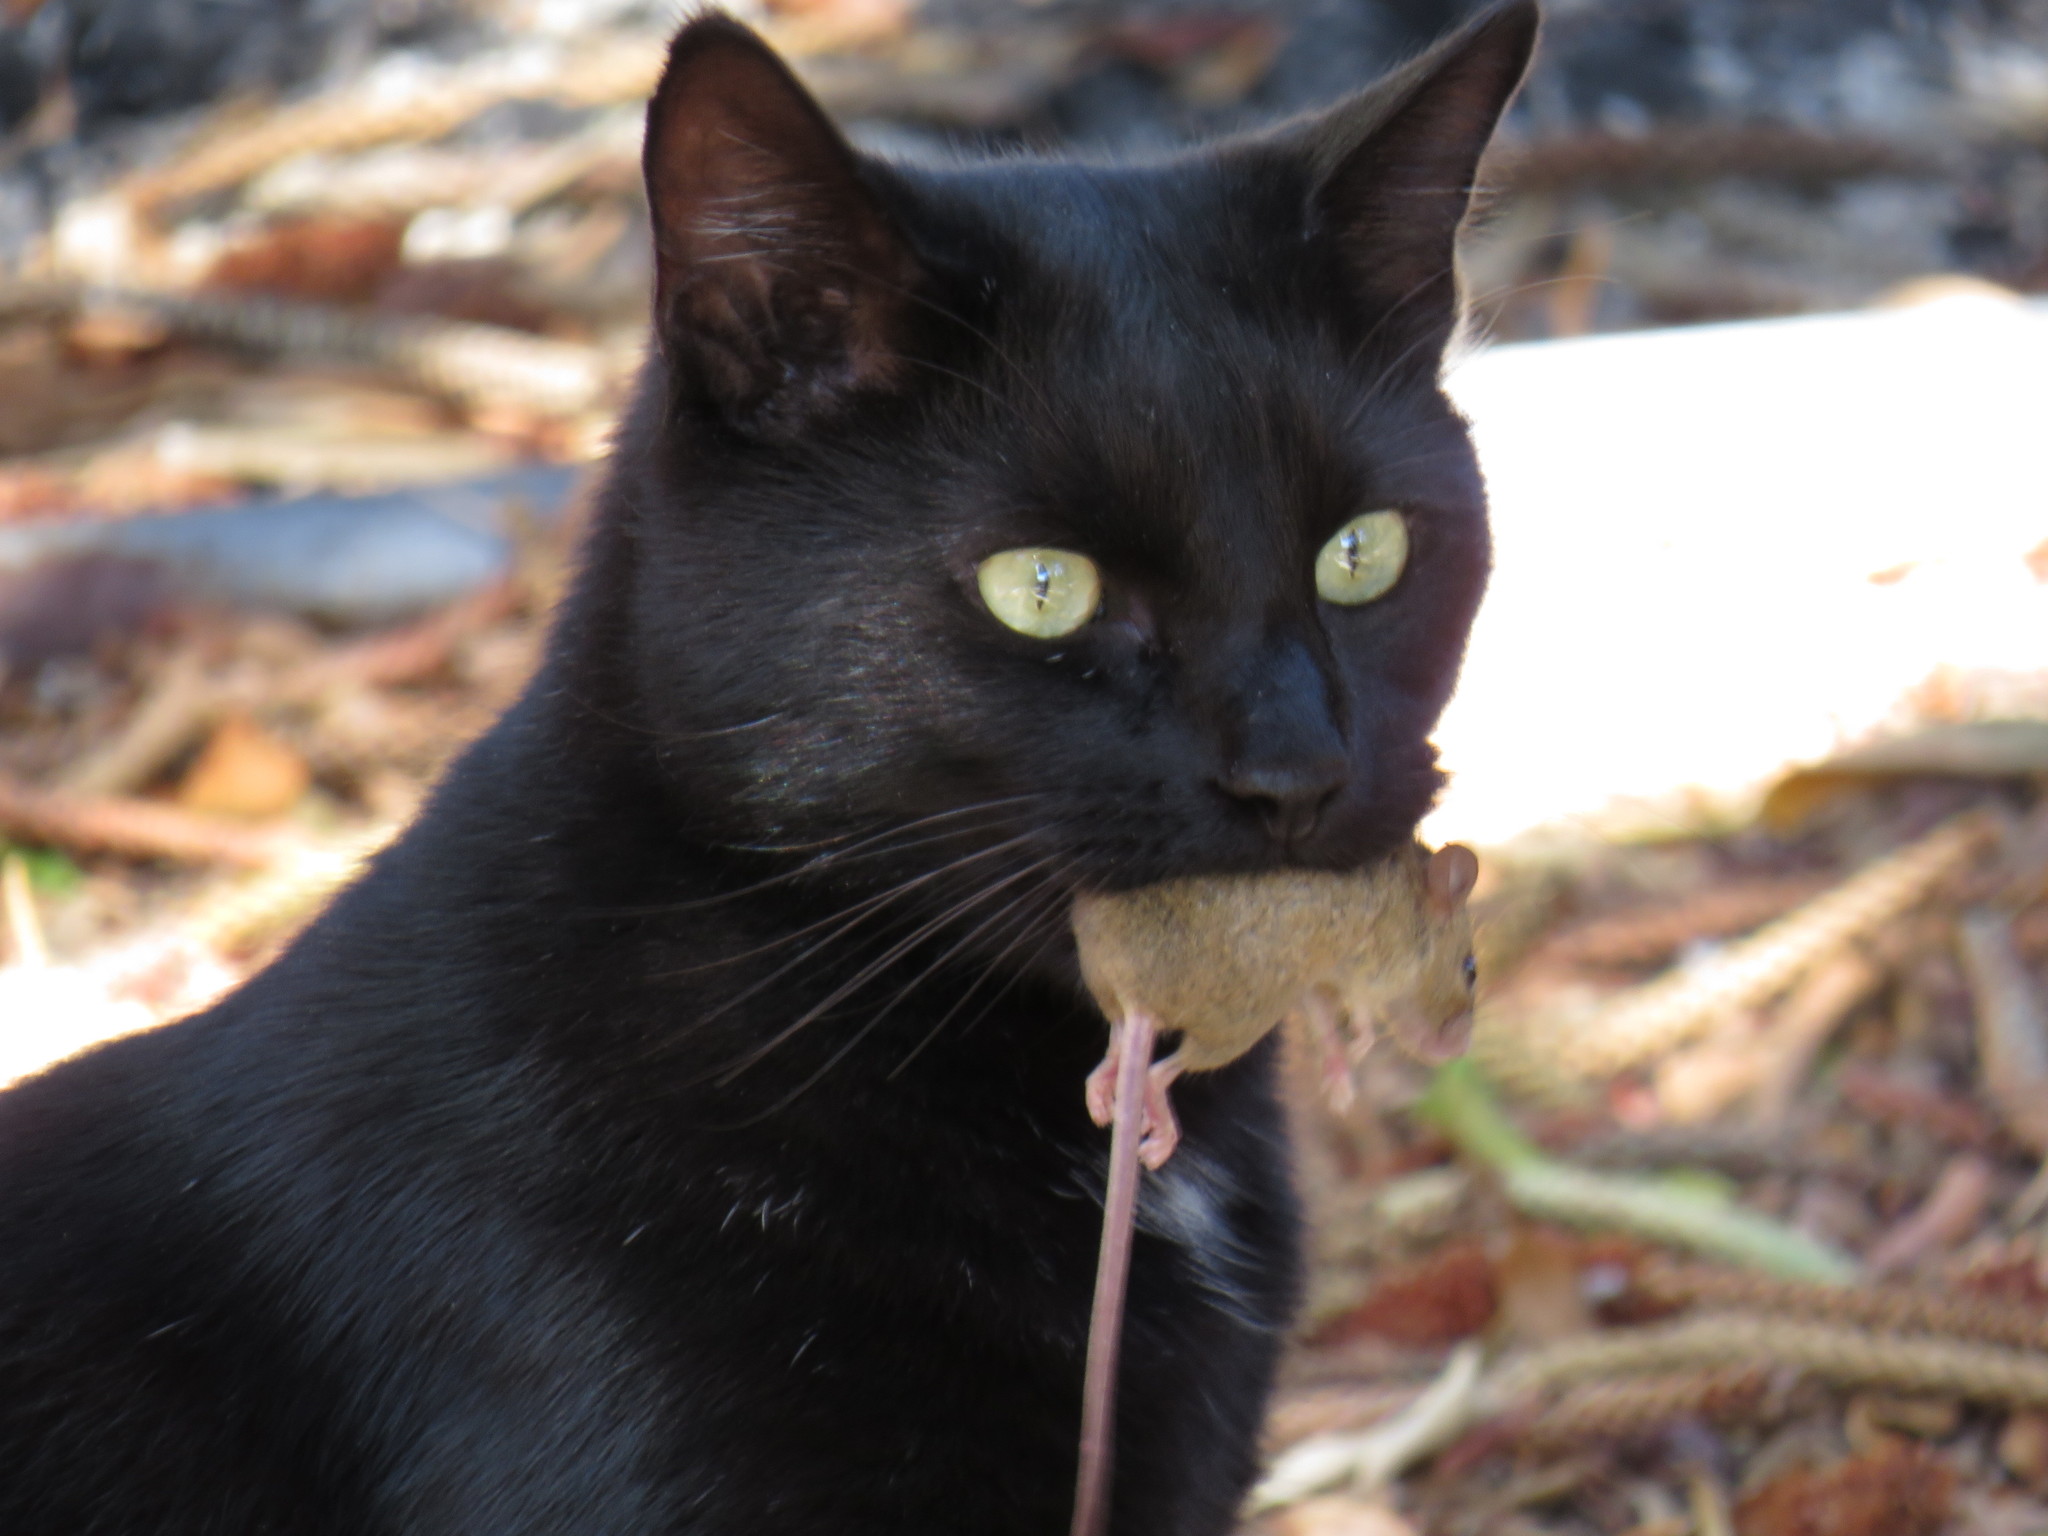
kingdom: Animalia
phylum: Chordata
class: Mammalia
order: Rodentia
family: Muridae
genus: Mus
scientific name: Mus musculus
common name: House mouse
